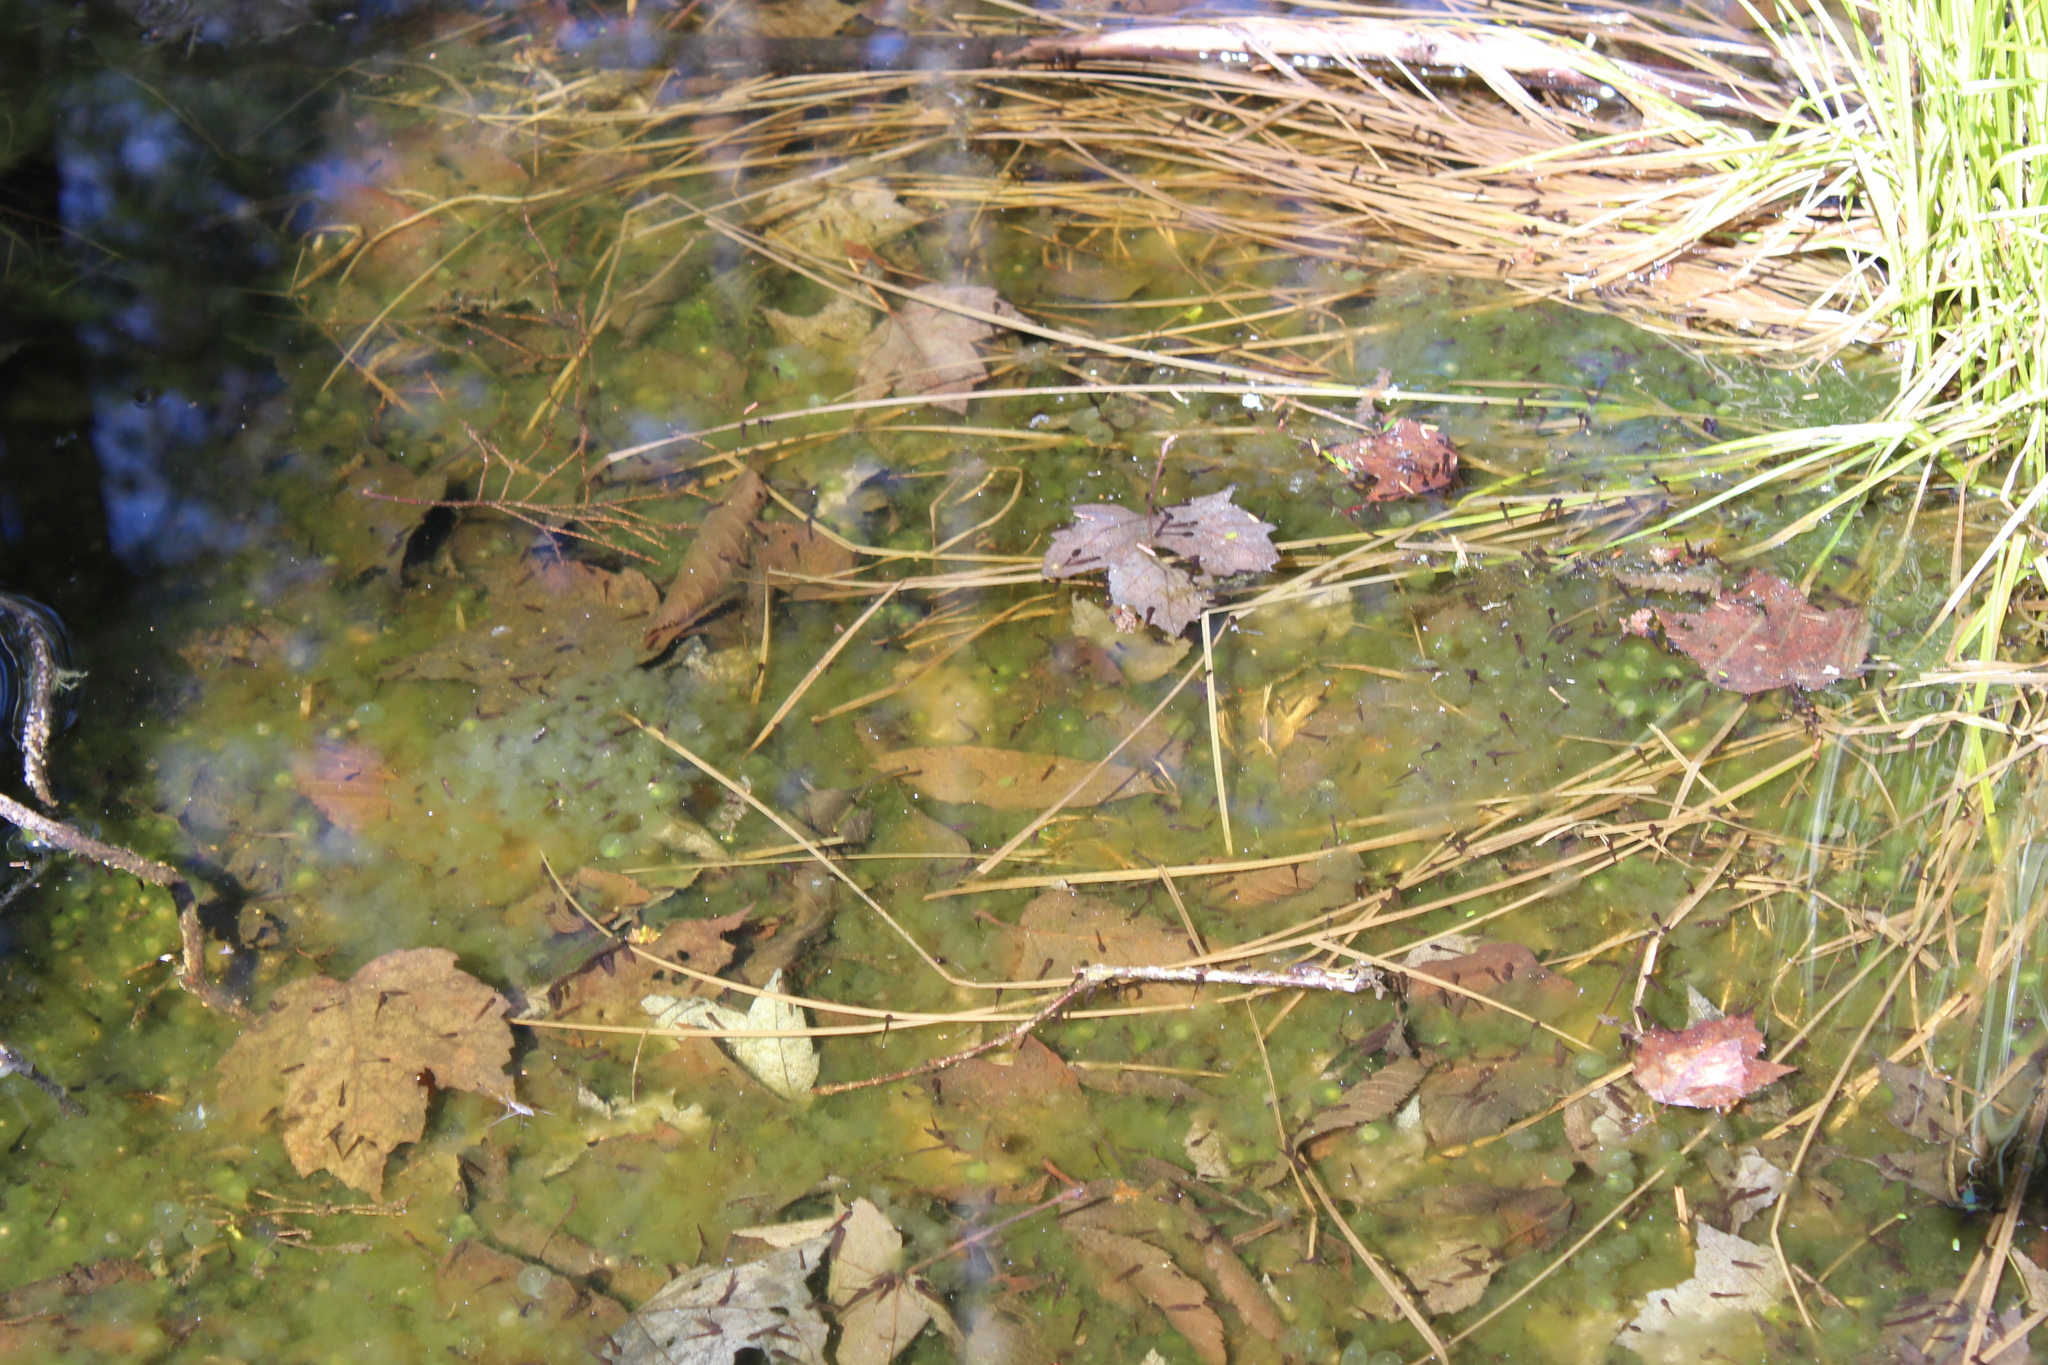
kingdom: Animalia
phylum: Chordata
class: Amphibia
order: Anura
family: Ranidae
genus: Lithobates
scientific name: Lithobates sylvaticus
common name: Wood frog
